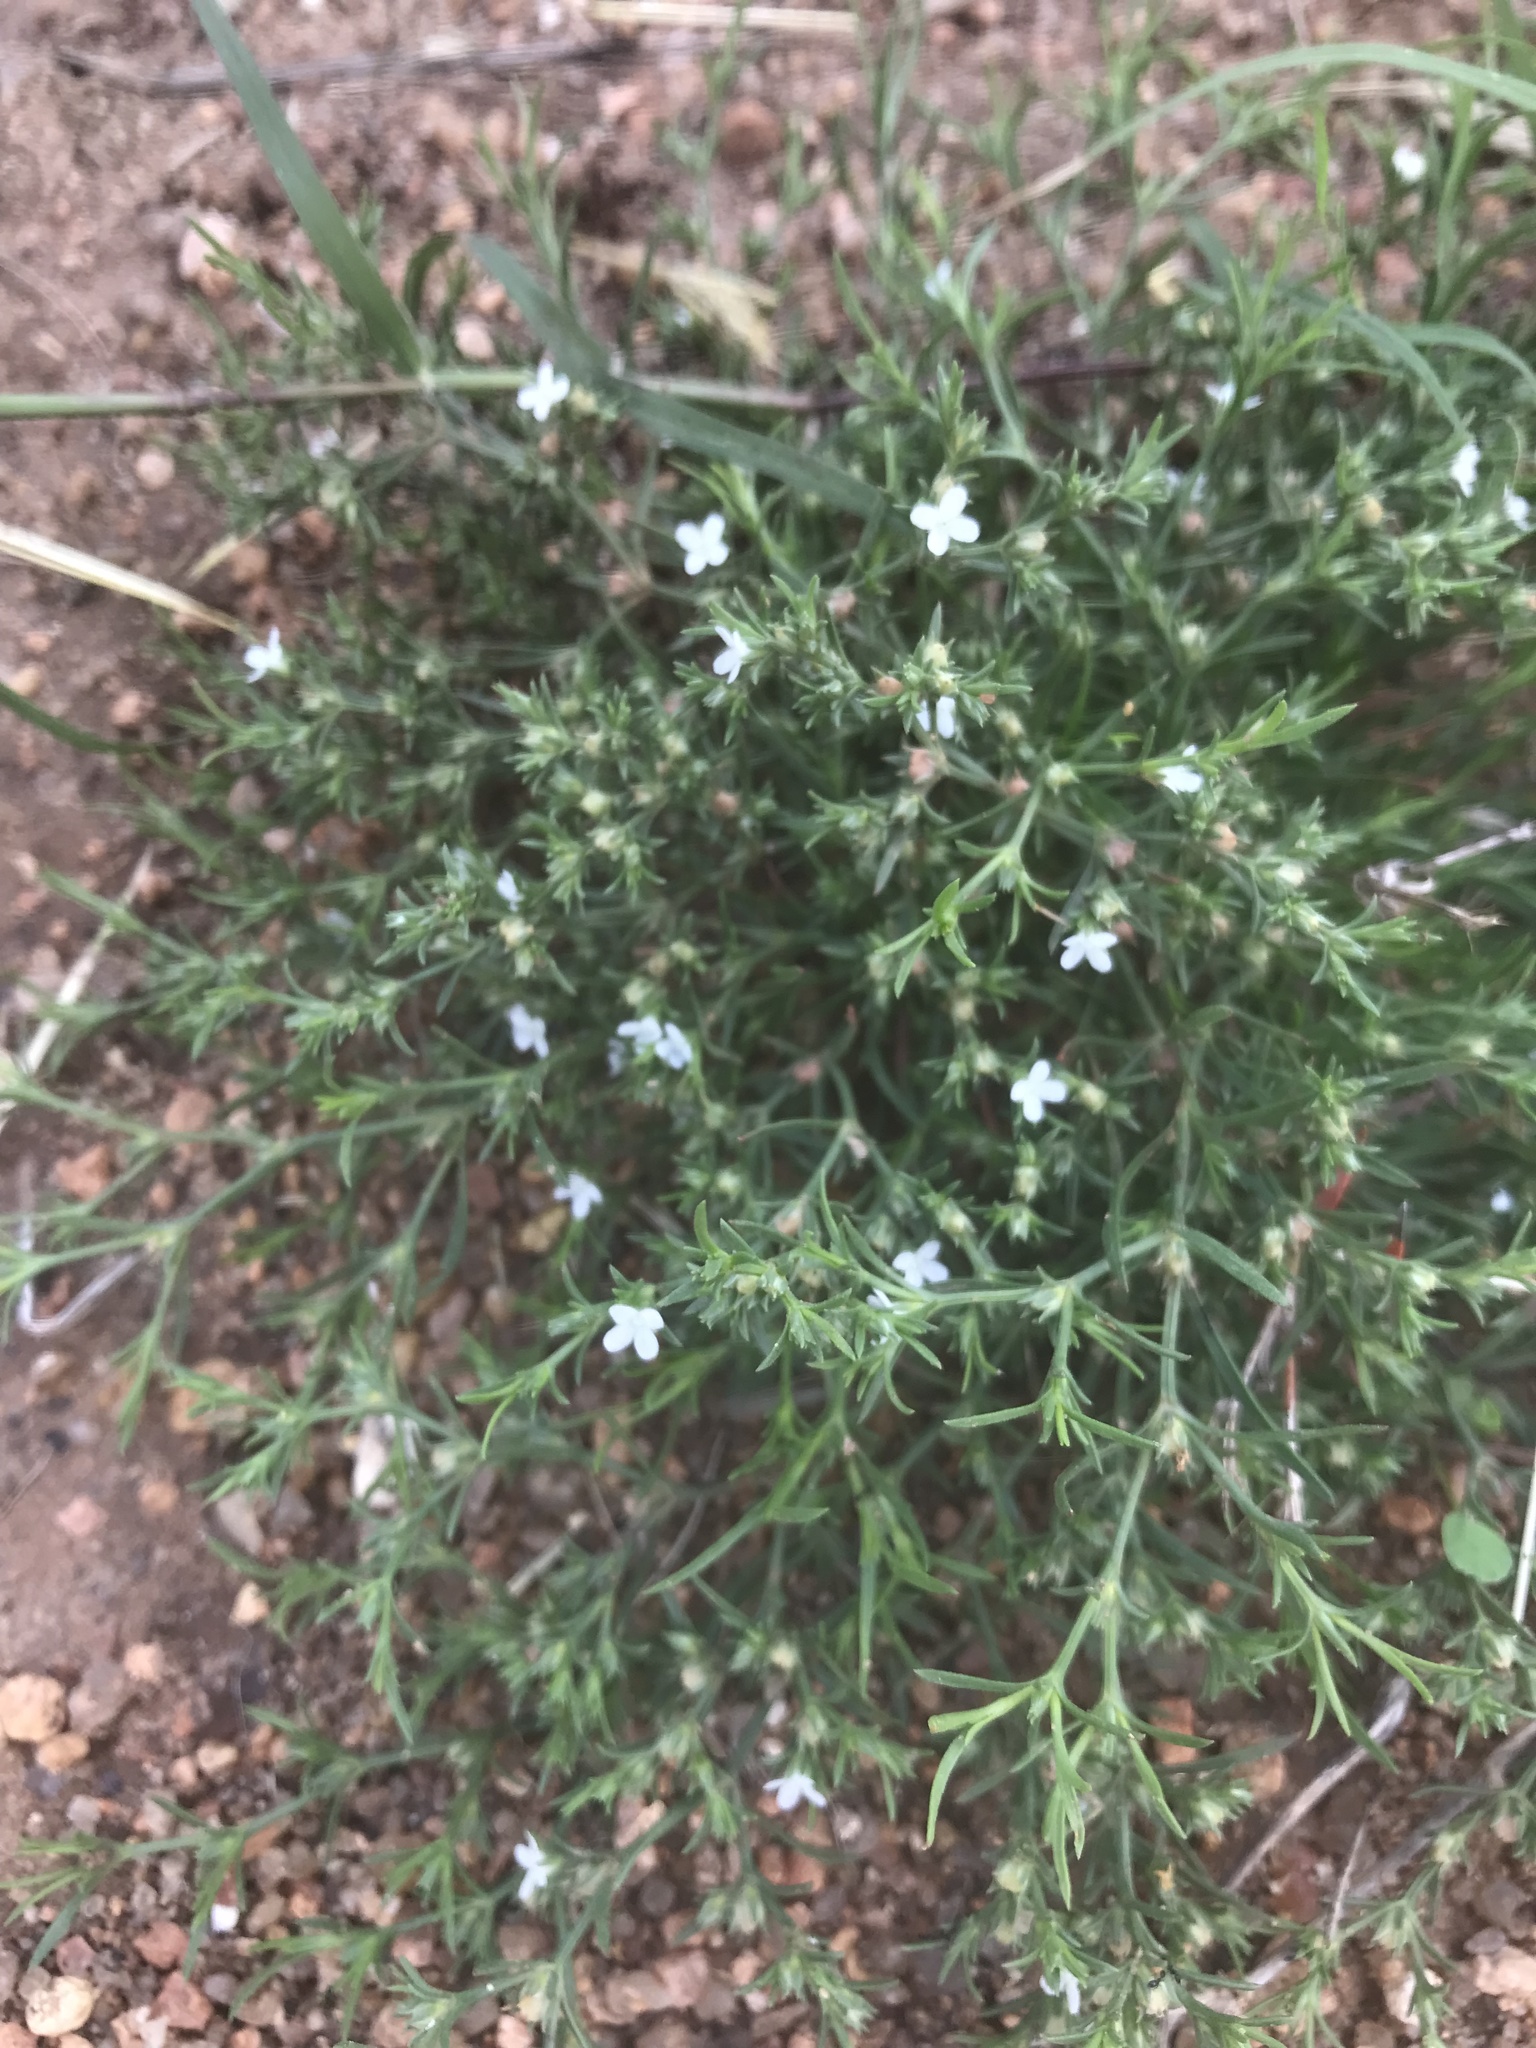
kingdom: Plantae
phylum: Tracheophyta
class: Magnoliopsida
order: Lamiales
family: Tetrachondraceae
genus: Polypremum
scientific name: Polypremum procumbens
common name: Juniper-leaf
